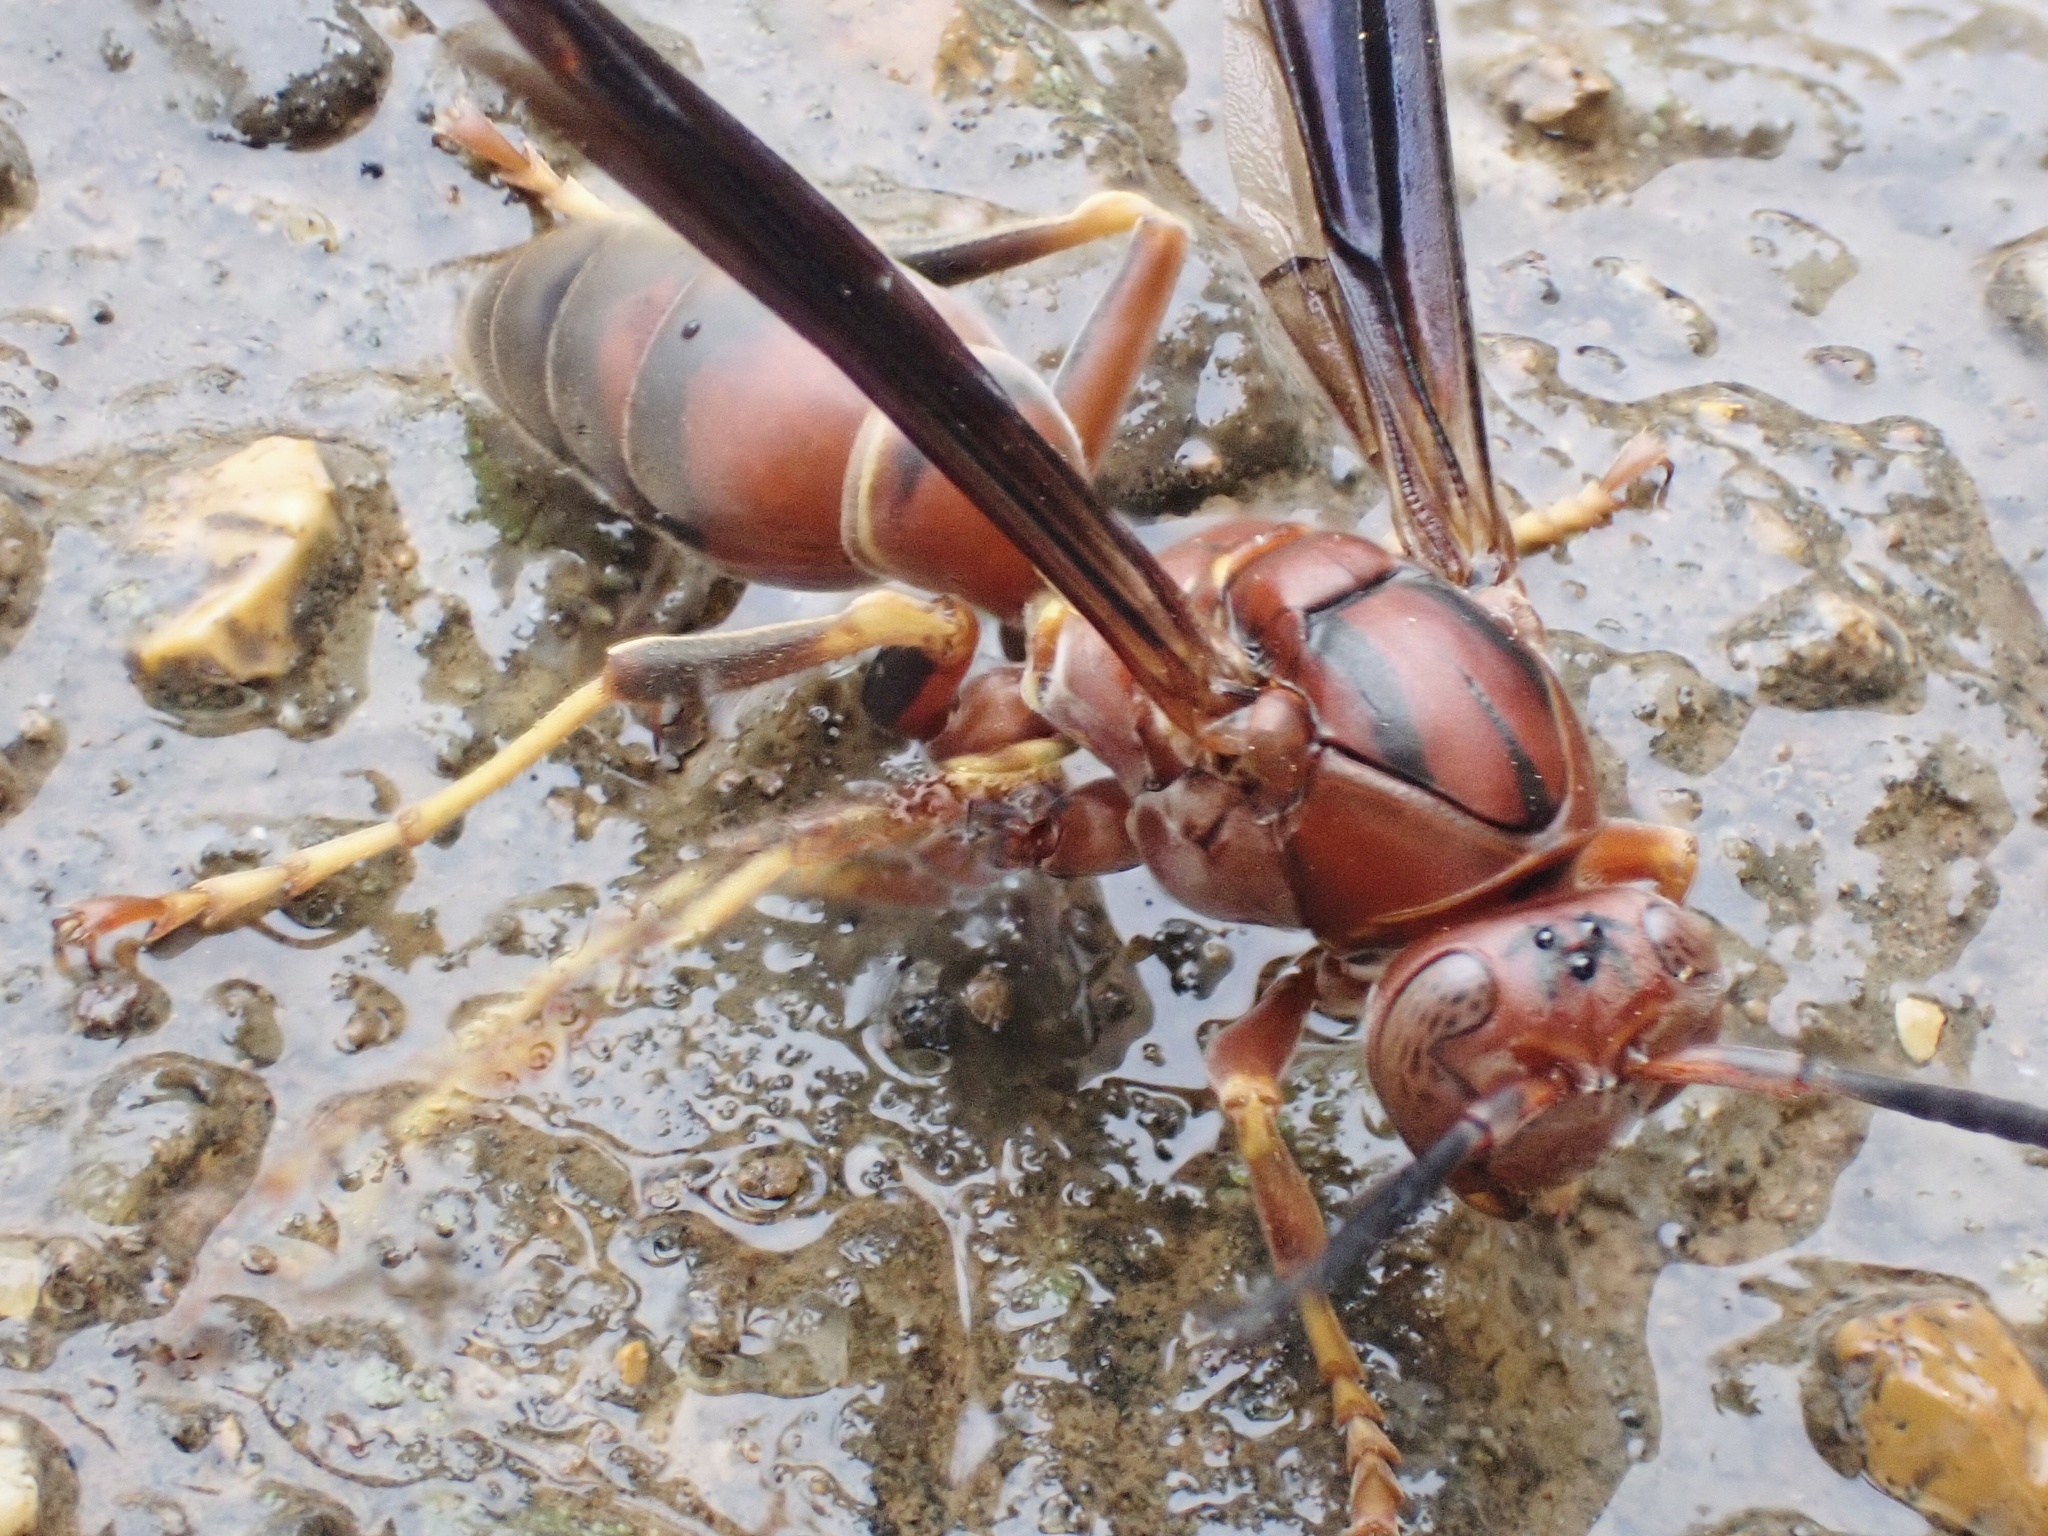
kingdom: Animalia
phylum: Arthropoda
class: Insecta
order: Hymenoptera
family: Eumenidae
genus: Polistes
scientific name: Polistes fuscatus
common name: Dark paper wasp
